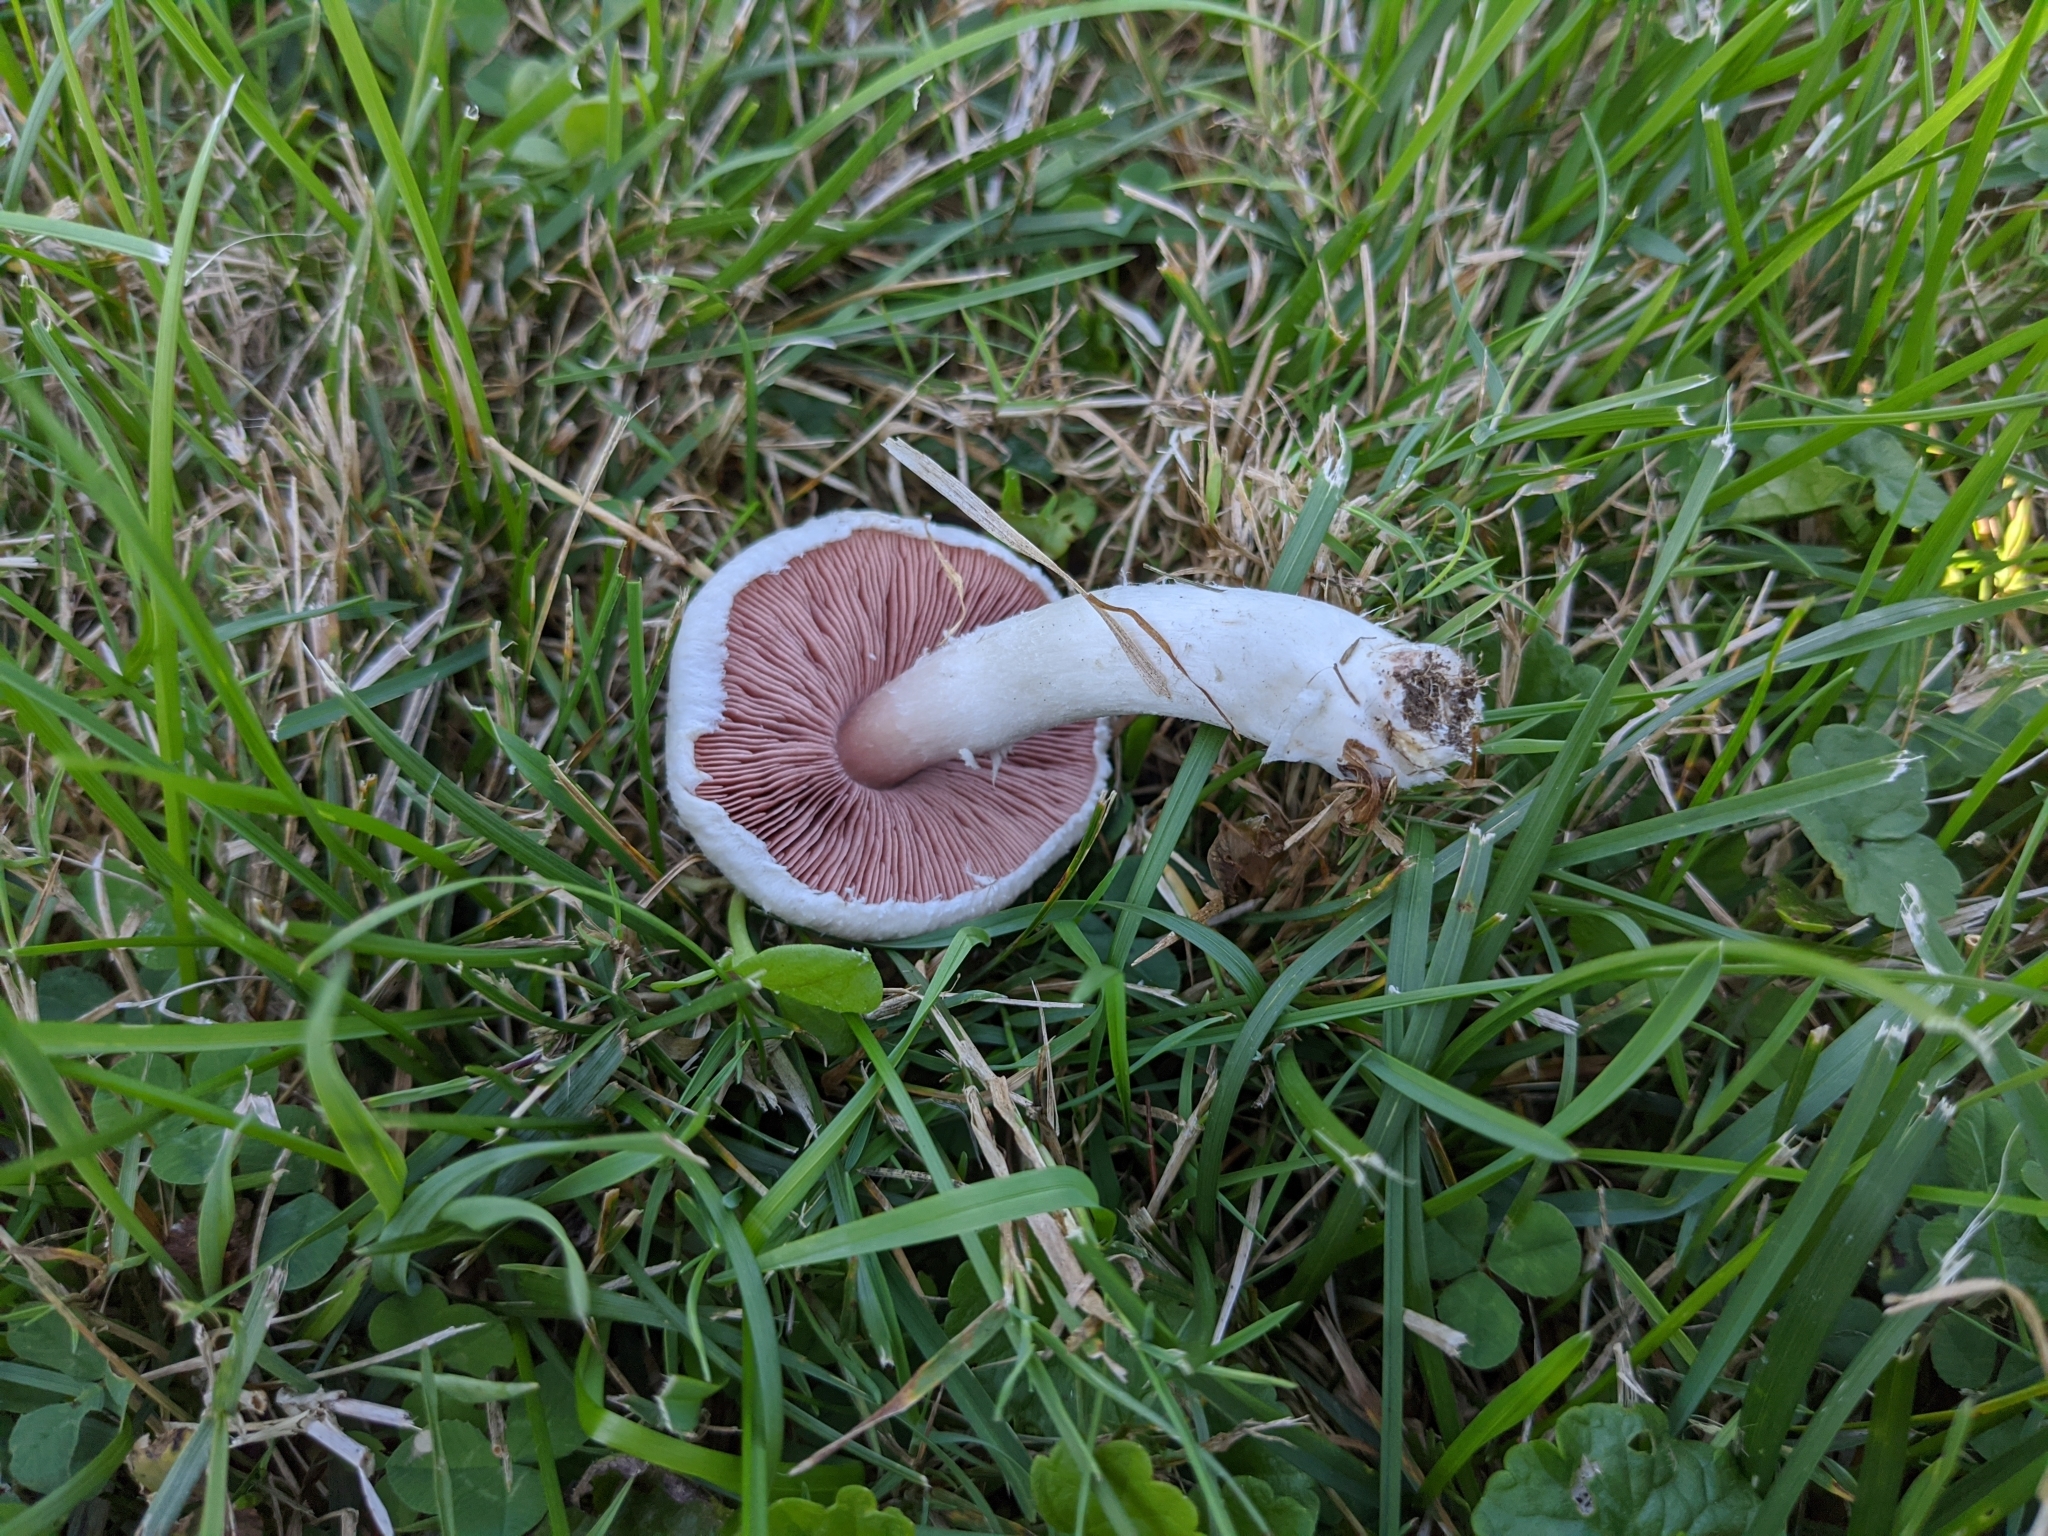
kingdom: Fungi
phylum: Basidiomycota
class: Agaricomycetes
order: Agaricales
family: Agaricaceae
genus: Agaricus
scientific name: Agaricus campestris
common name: Field mushroom
